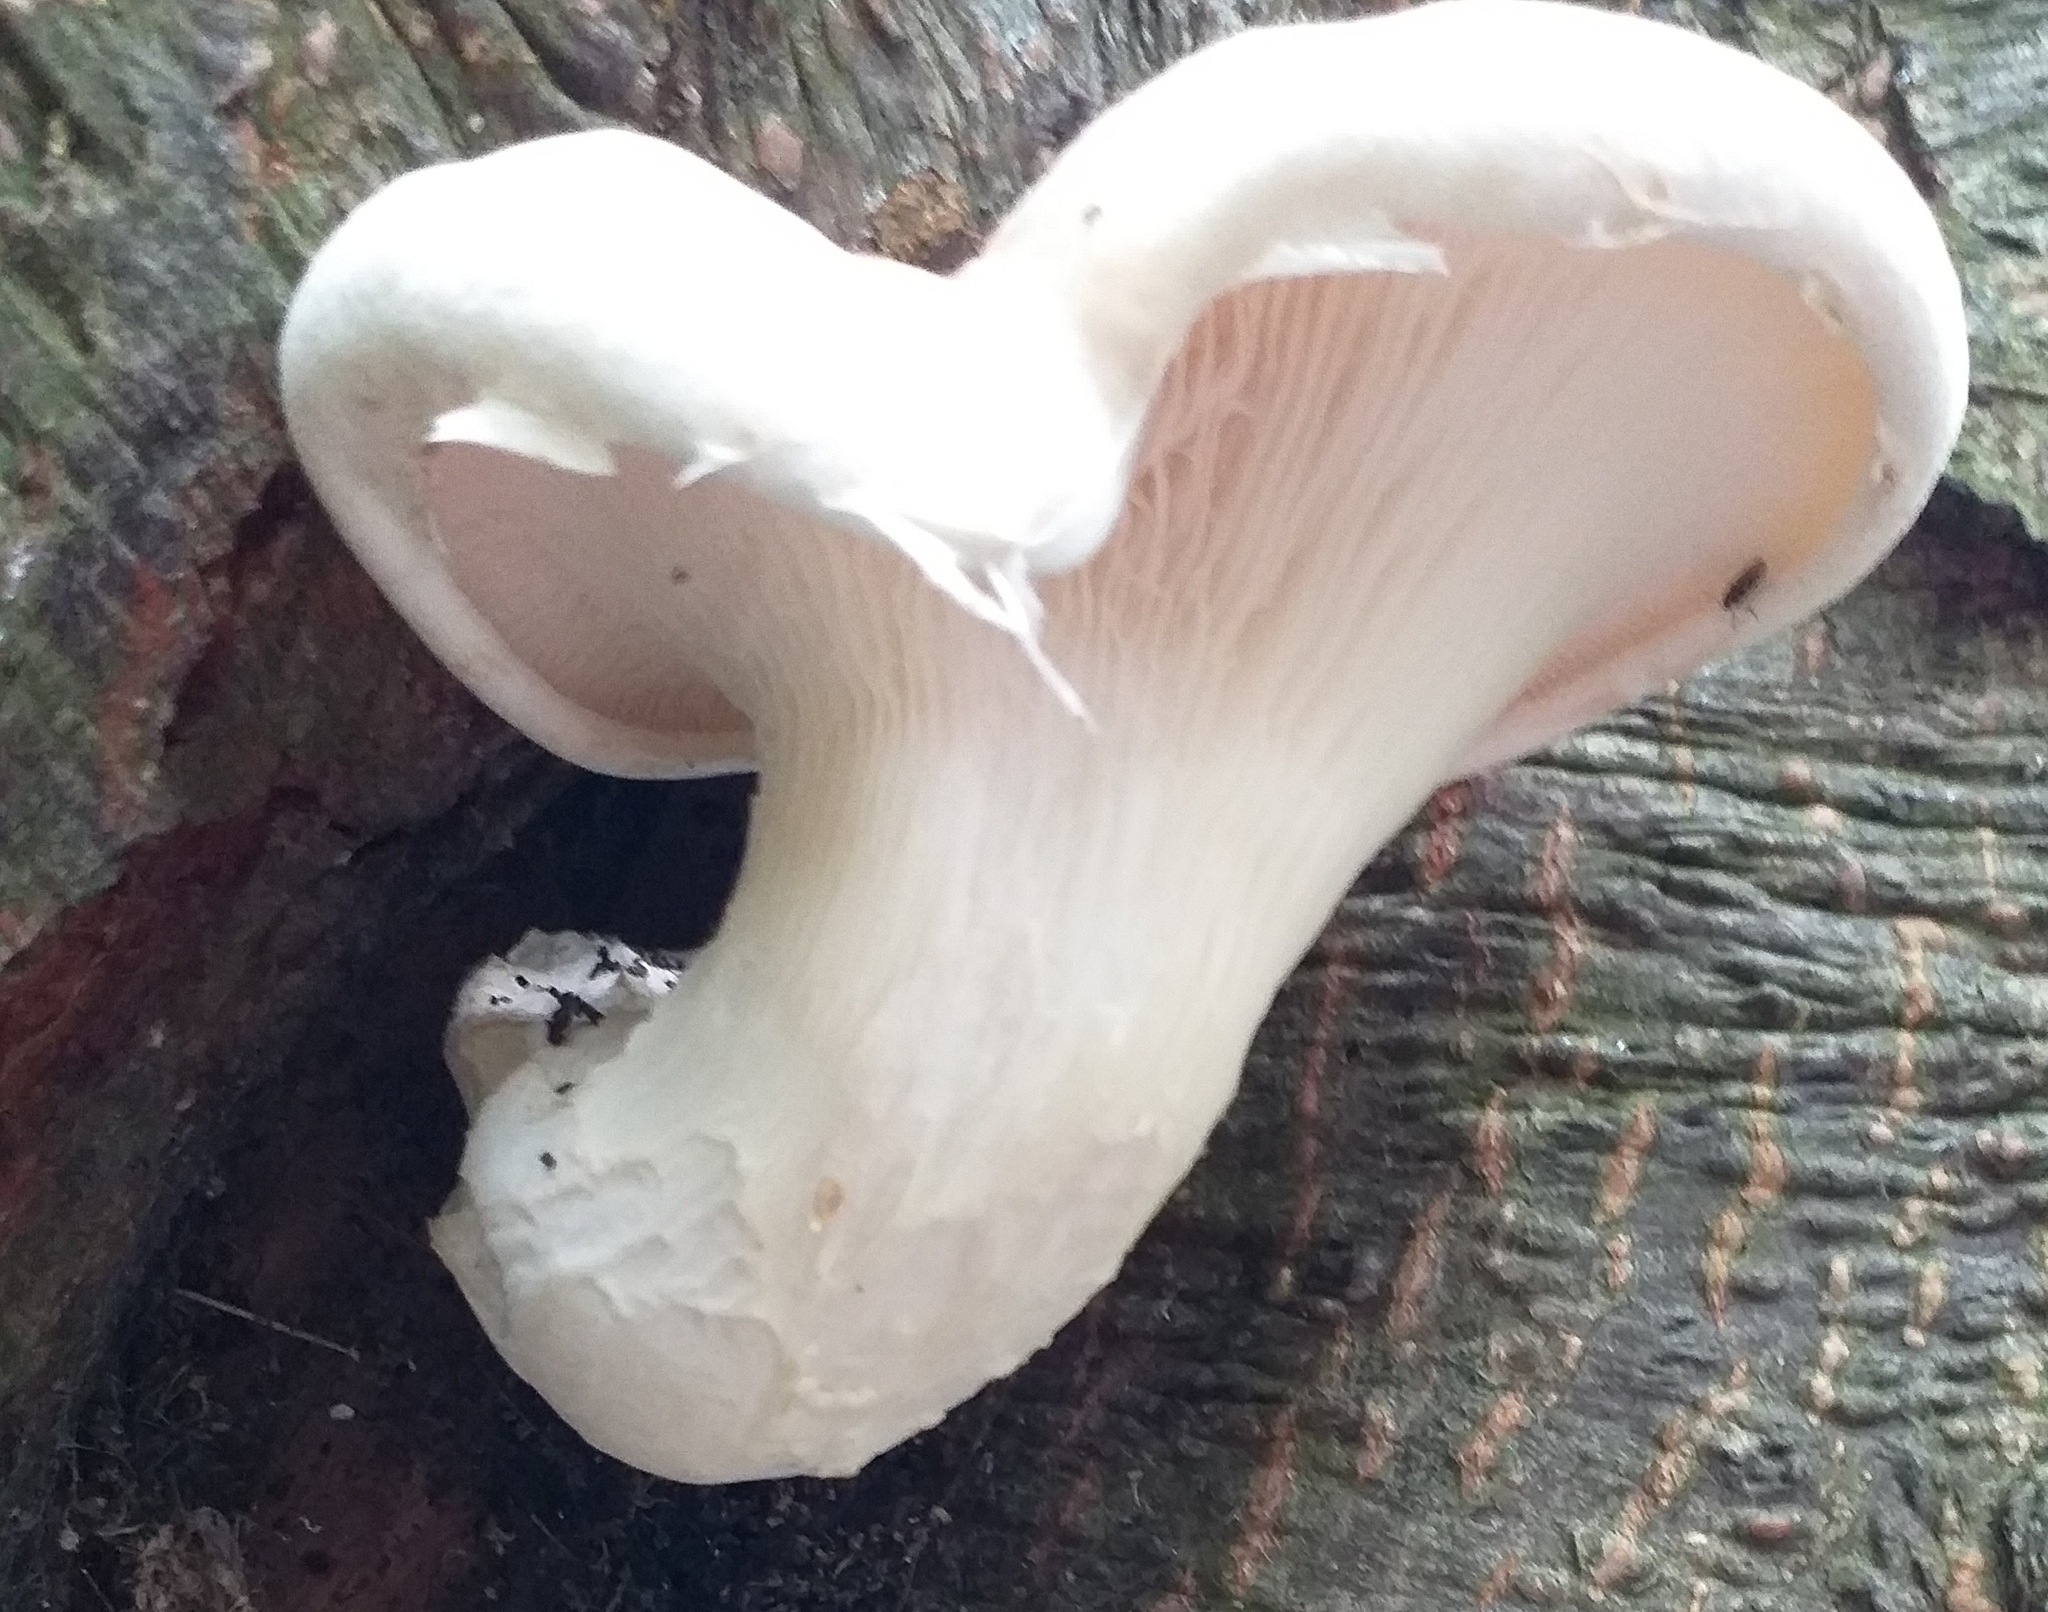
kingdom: Fungi
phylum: Basidiomycota
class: Agaricomycetes
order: Agaricales
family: Pleurotaceae
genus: Pleurotus
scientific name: Pleurotus dryinus
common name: Veiled oyster
